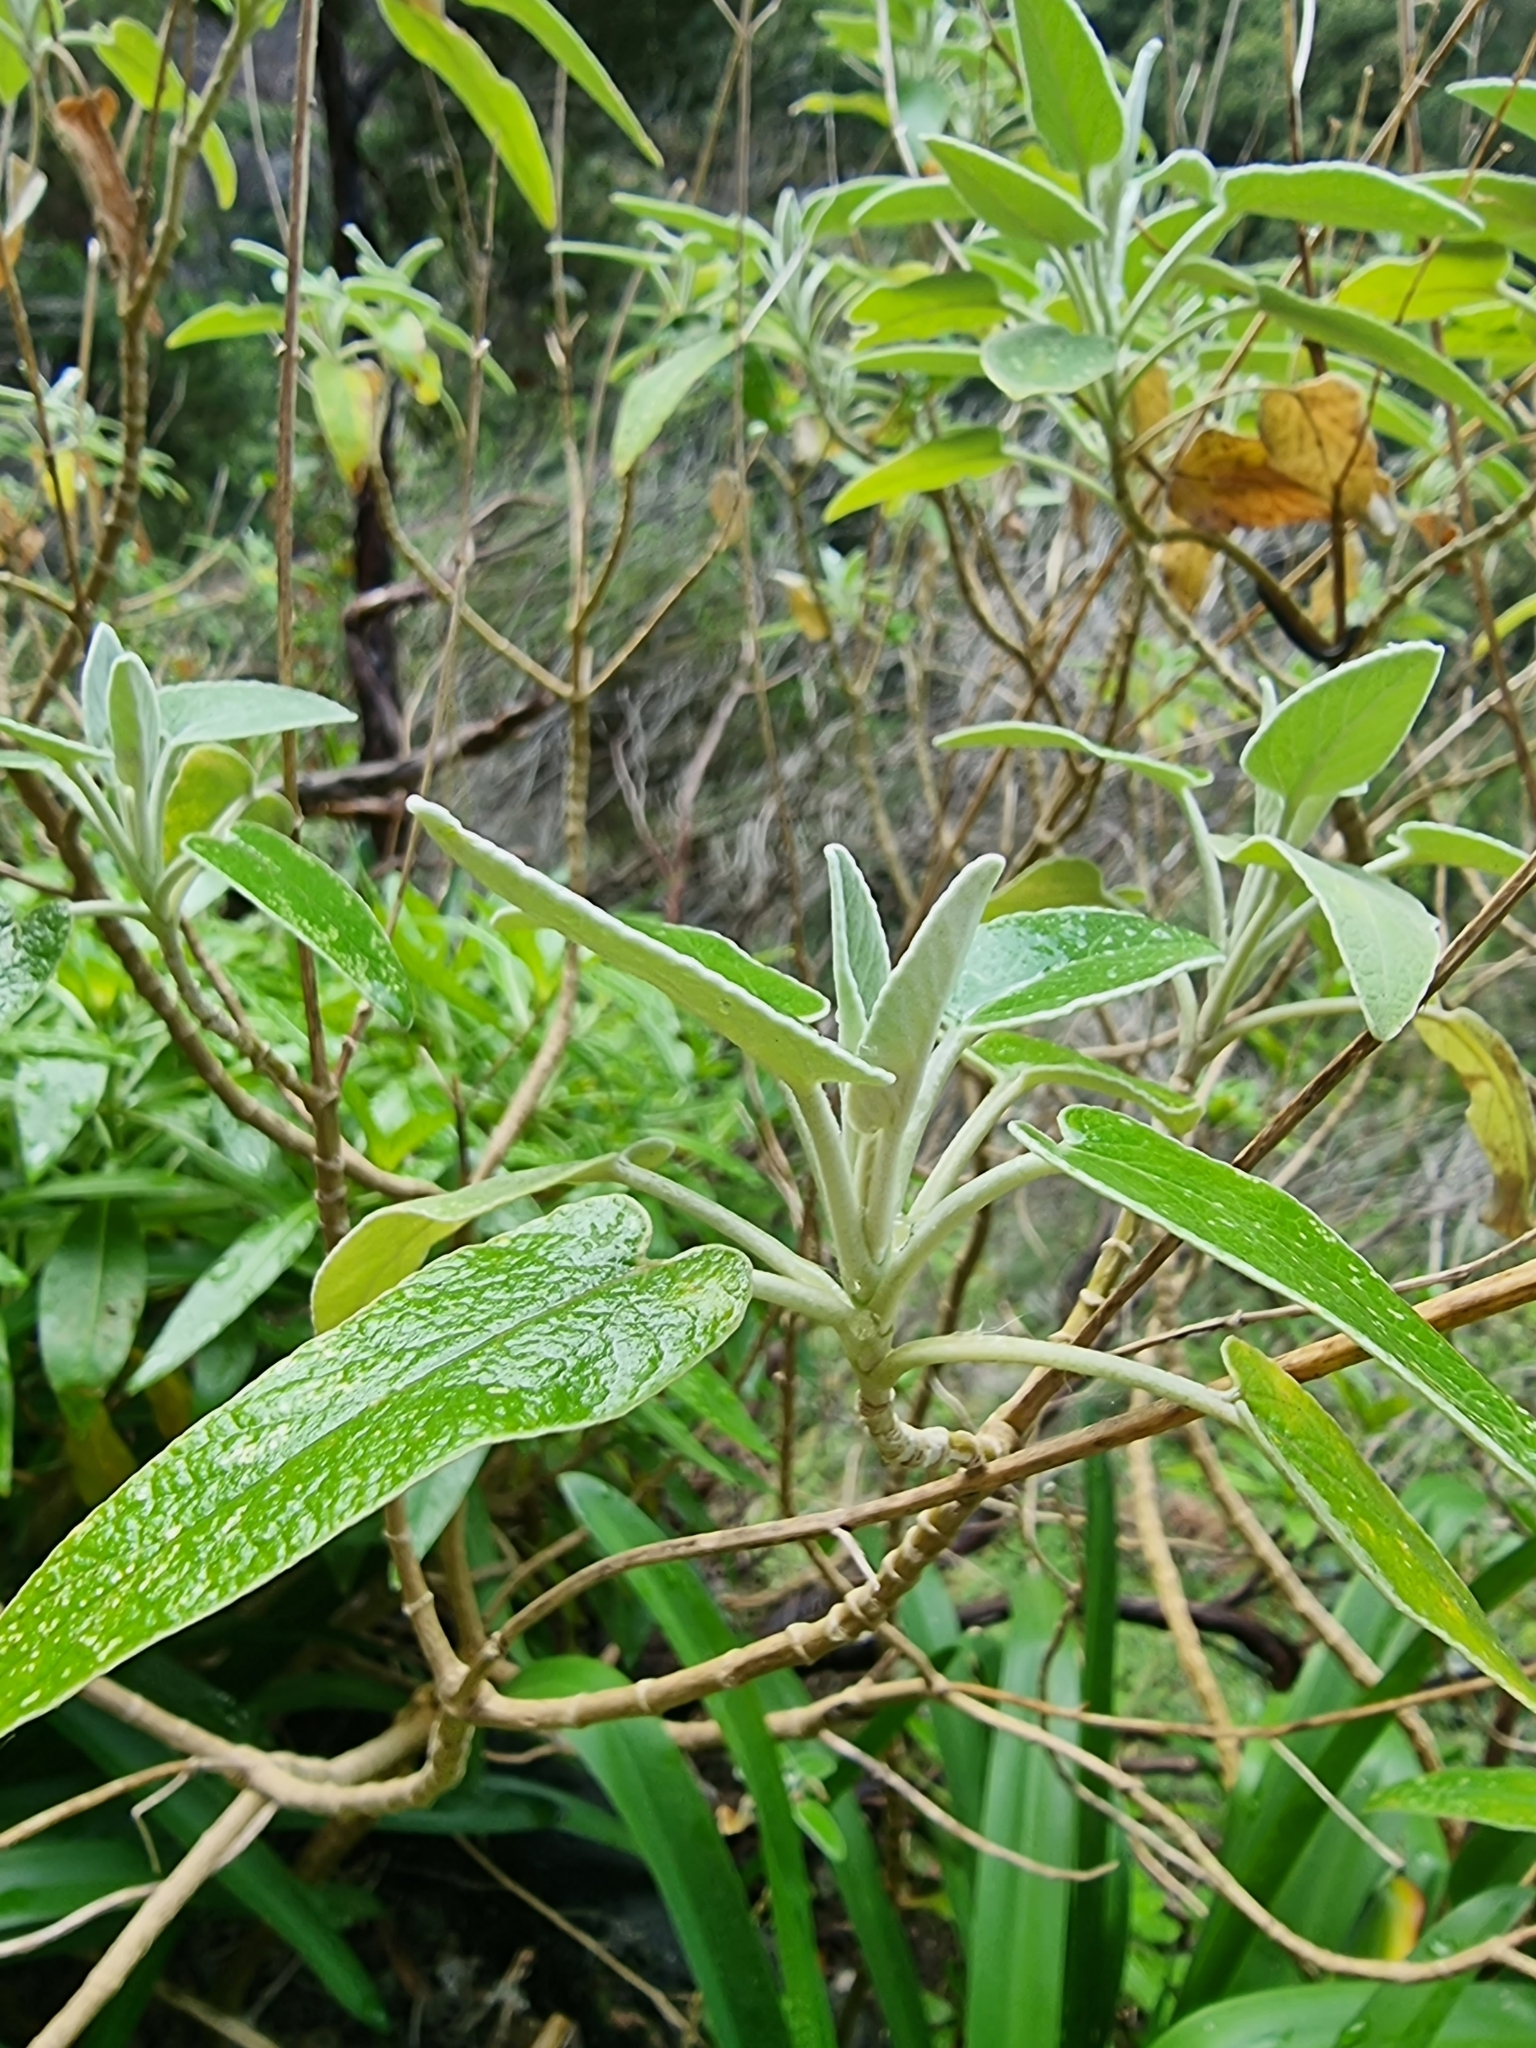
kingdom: Plantae
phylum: Tracheophyta
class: Magnoliopsida
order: Lamiales
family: Lamiaceae
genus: Sideritis
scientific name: Sideritis candicans
